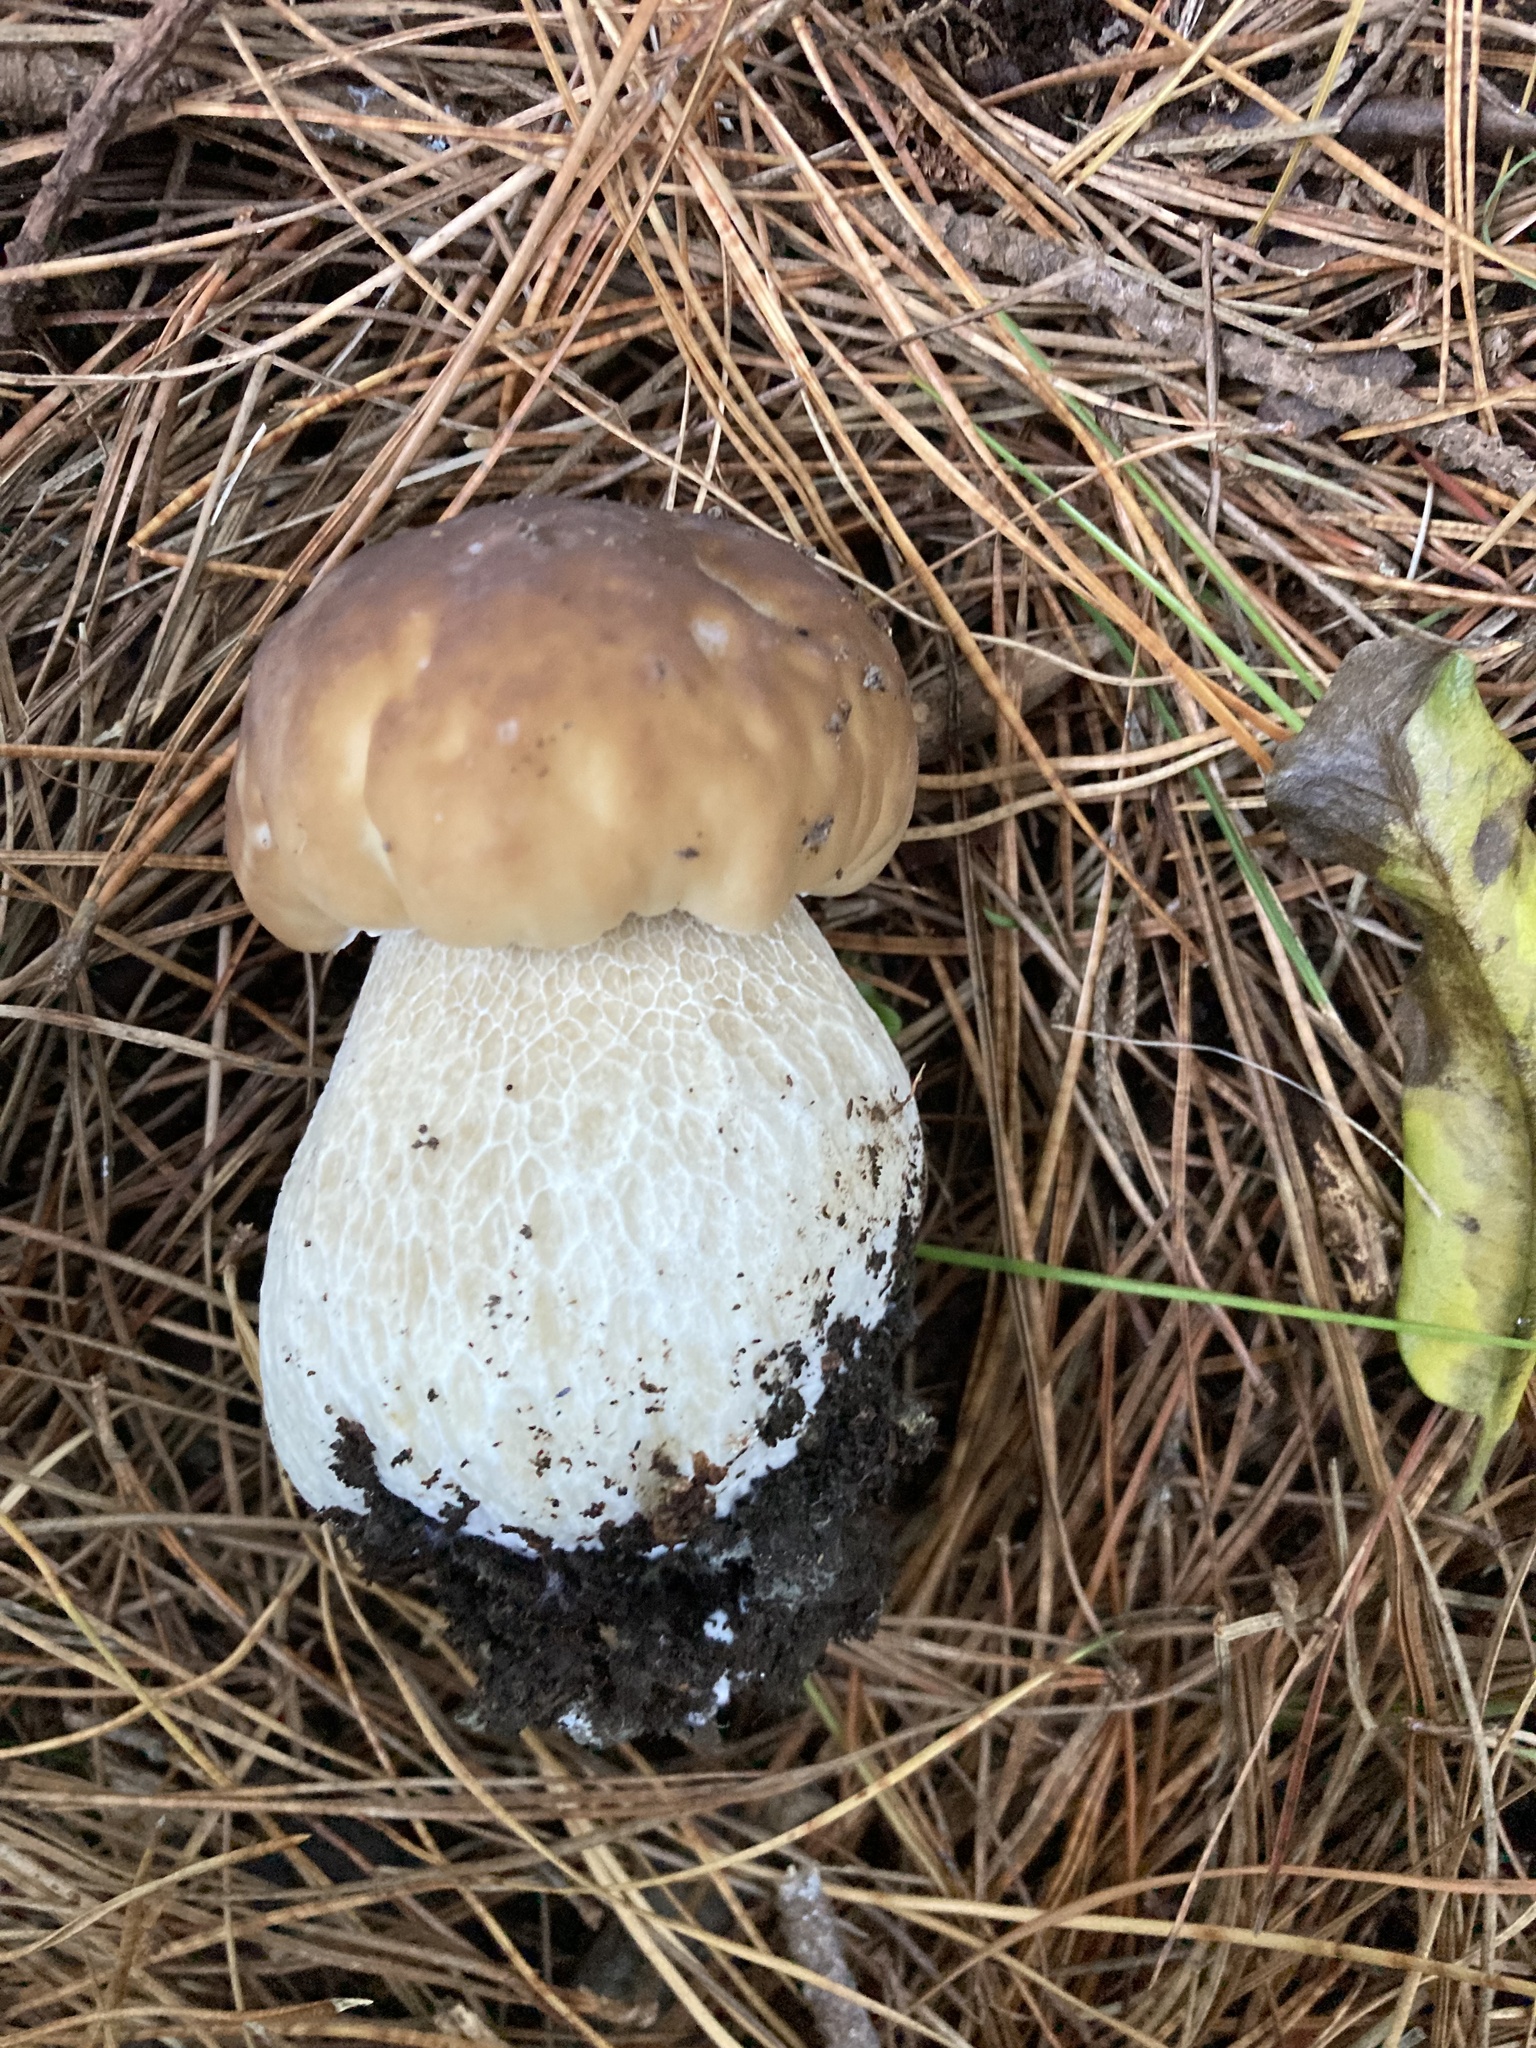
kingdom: Fungi
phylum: Basidiomycota
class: Agaricomycetes
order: Boletales
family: Boletaceae
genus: Boletus
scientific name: Boletus edulis
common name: Cep
